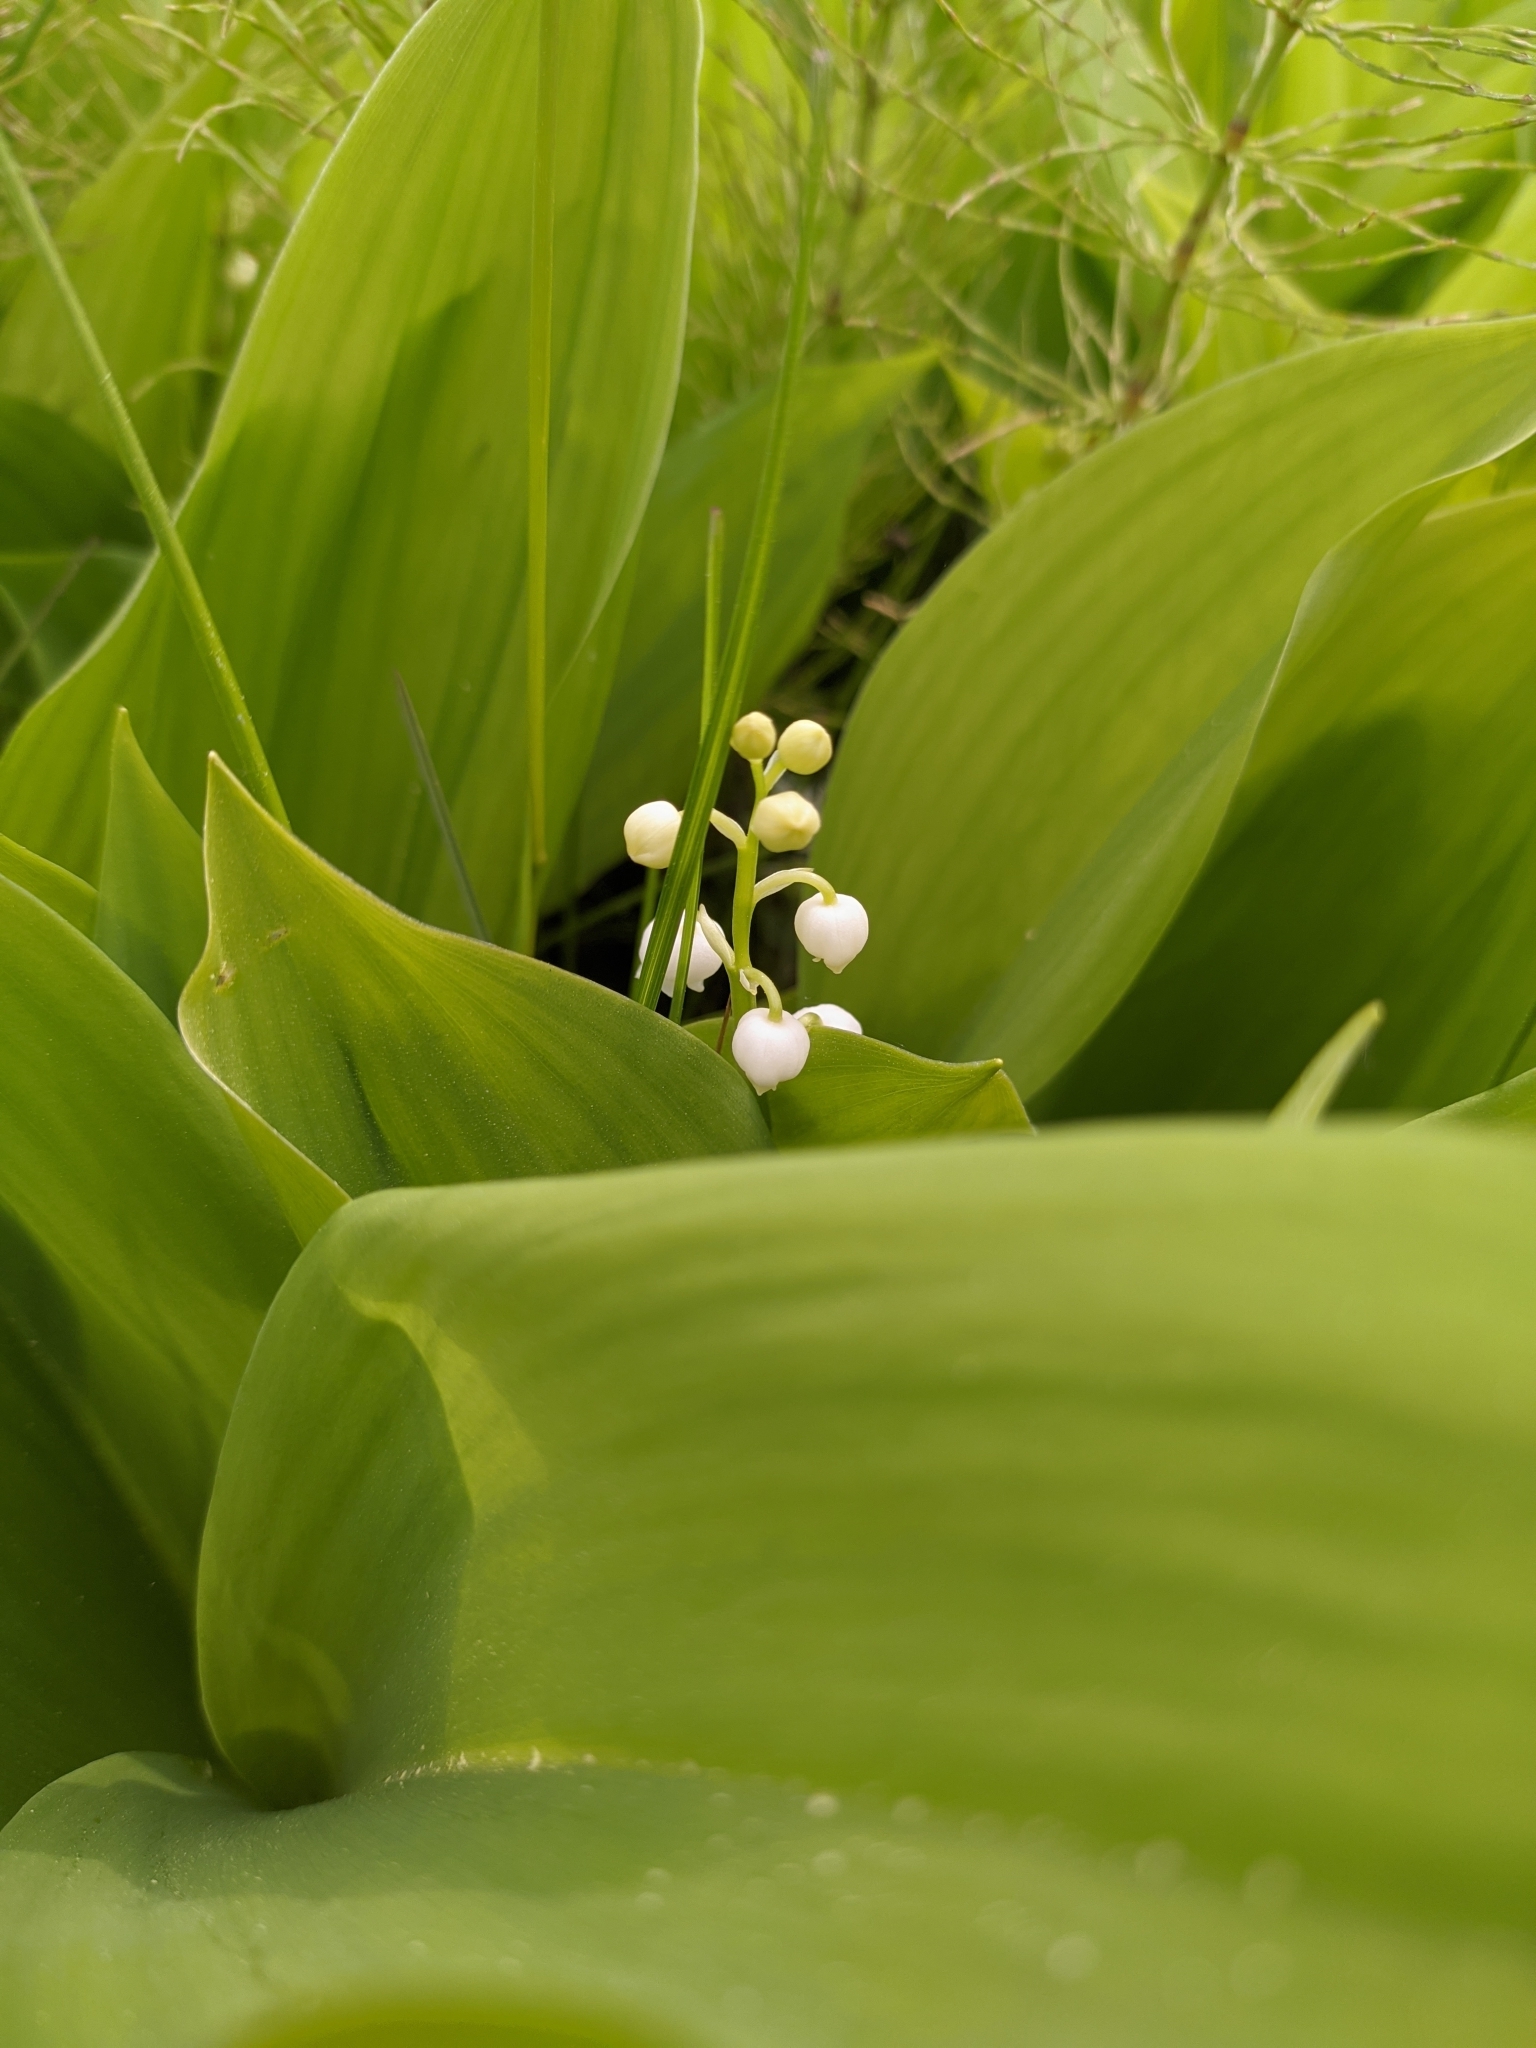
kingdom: Plantae
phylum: Tracheophyta
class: Liliopsida
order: Asparagales
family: Asparagaceae
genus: Convallaria
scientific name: Convallaria majalis
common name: Lily-of-the-valley
